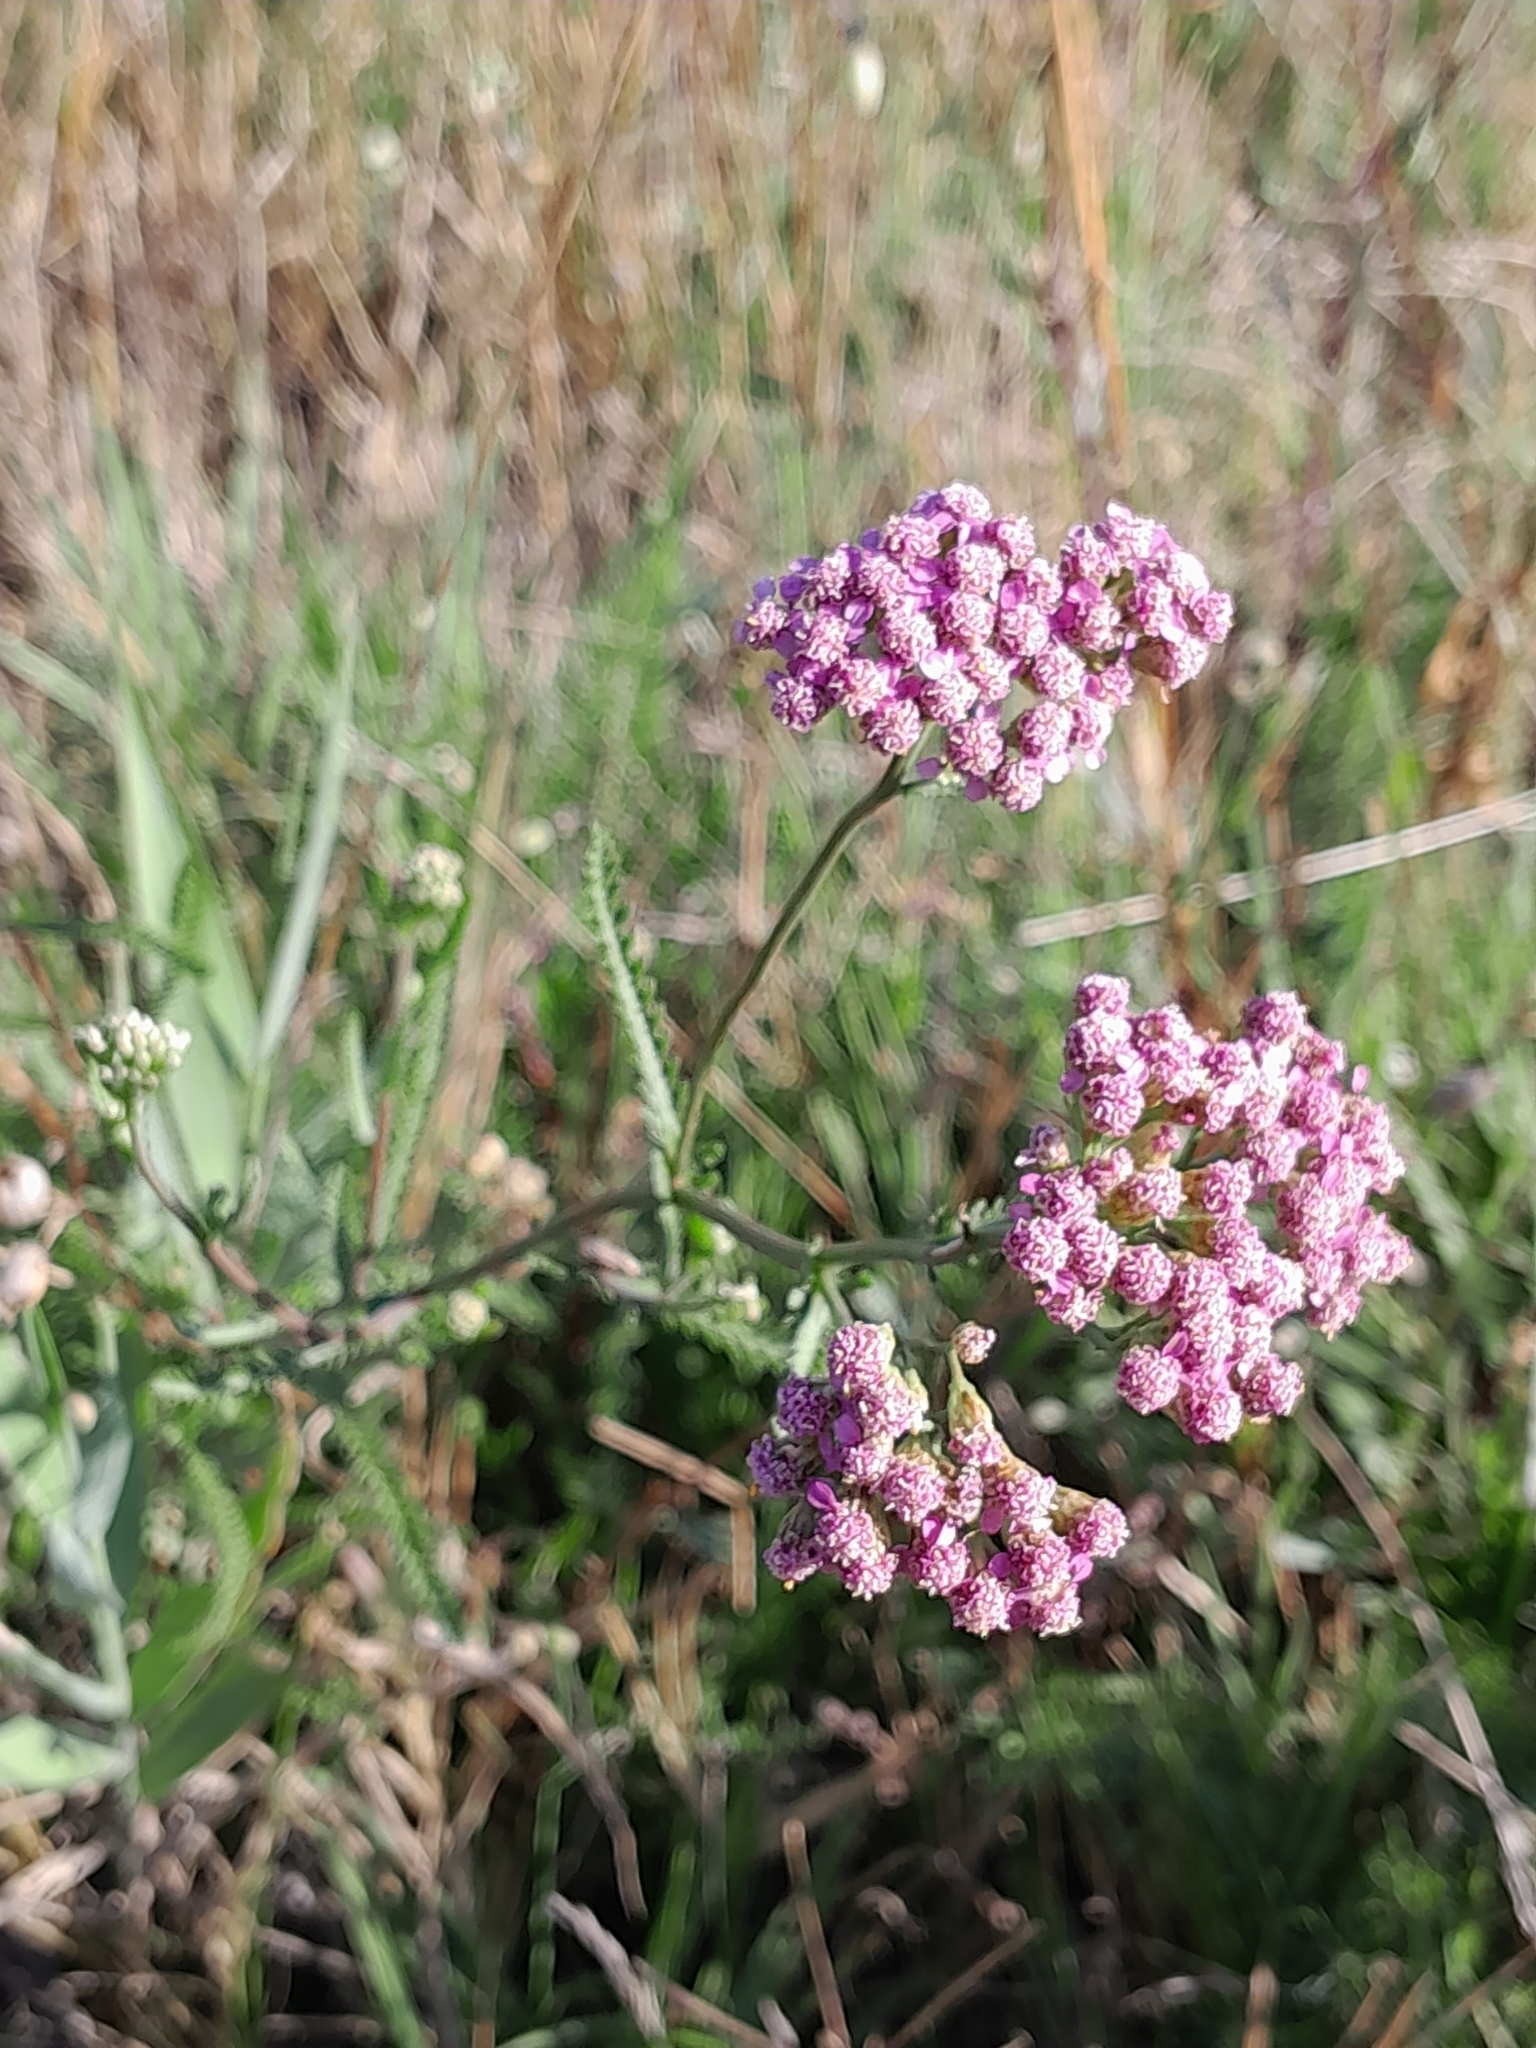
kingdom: Plantae
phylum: Tracheophyta
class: Magnoliopsida
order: Asterales
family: Asteraceae
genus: Achillea
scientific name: Achillea aspleniifolia
